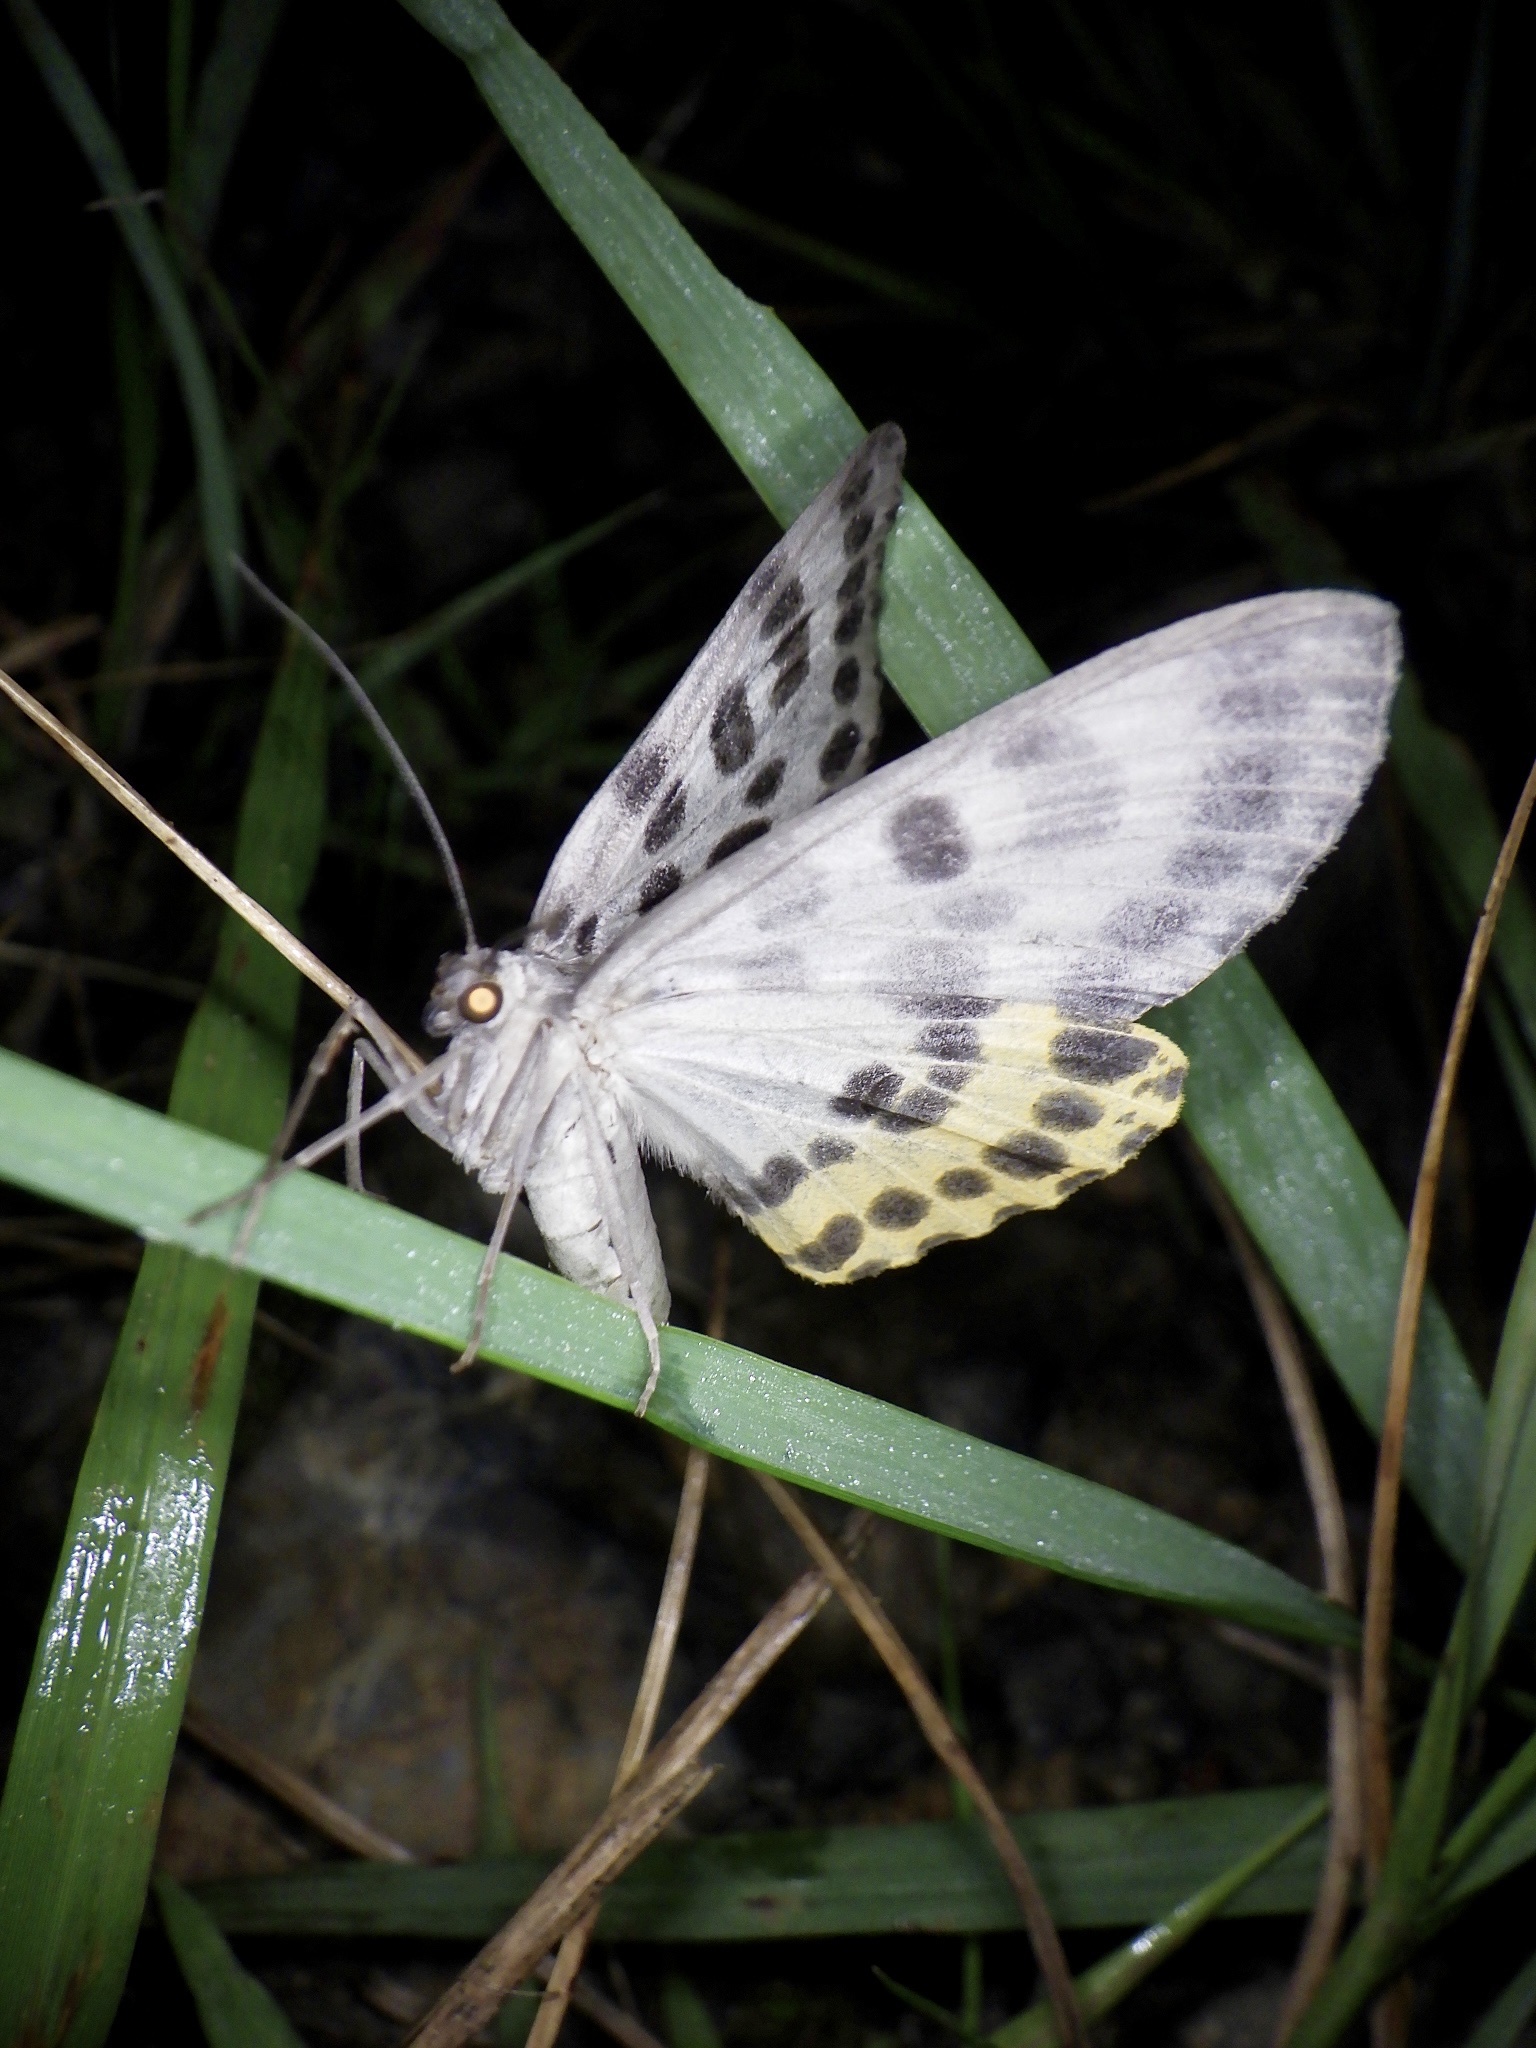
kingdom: Animalia
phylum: Arthropoda
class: Insecta
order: Lepidoptera
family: Geometridae
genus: Arichanna
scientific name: Arichanna
